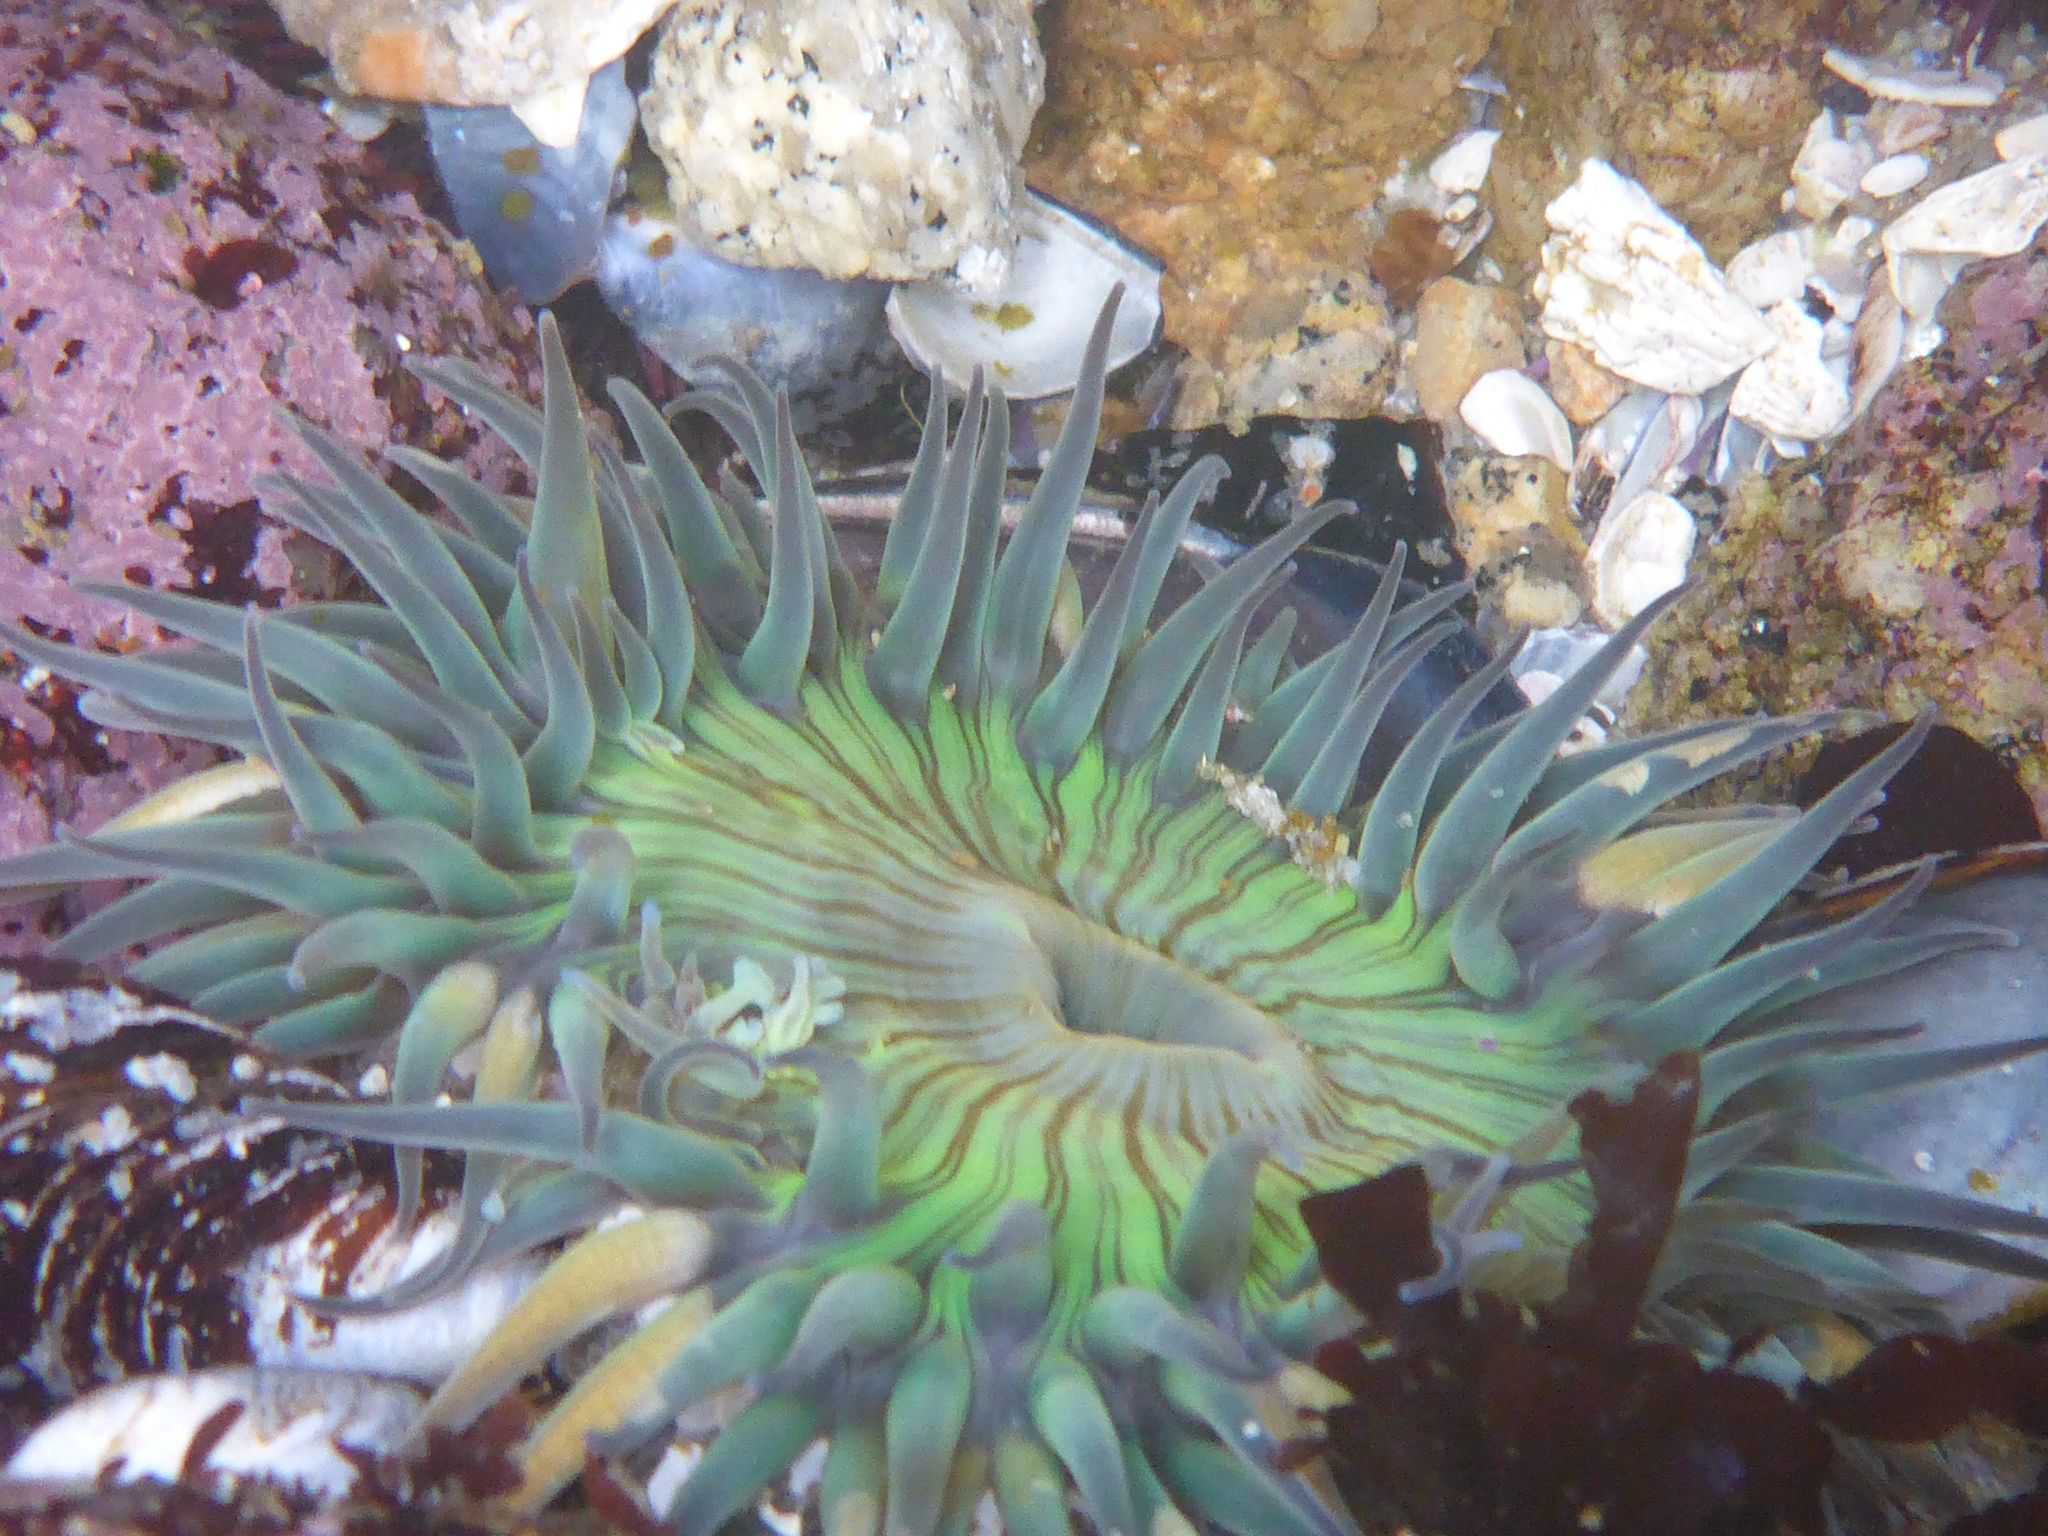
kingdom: Animalia
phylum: Cnidaria
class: Anthozoa
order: Actiniaria
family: Actiniidae
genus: Anthopleura
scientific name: Anthopleura sola
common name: Sun anemone
